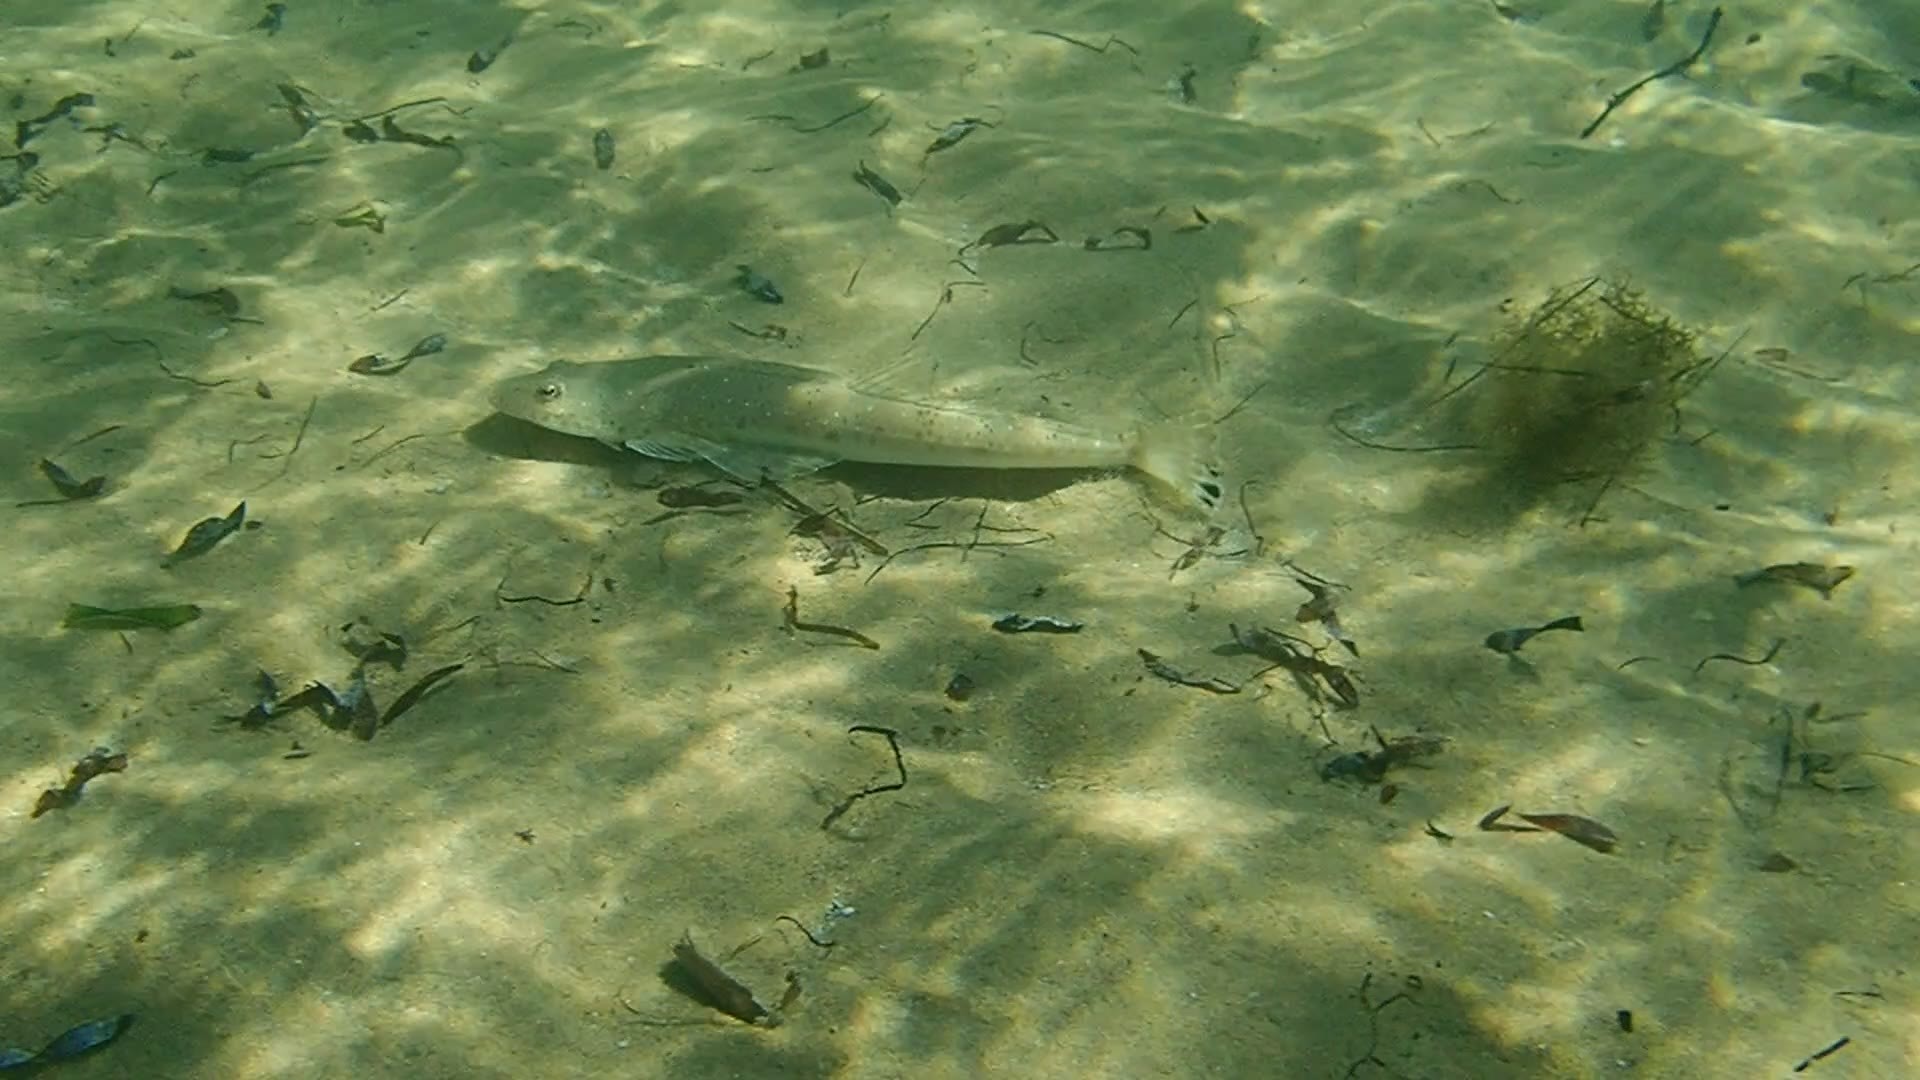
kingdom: Animalia
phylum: Chordata
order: Scorpaeniformes
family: Platycephalidae
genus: Platycephalus
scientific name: Platycephalus speculator
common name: Bluespot flathead
